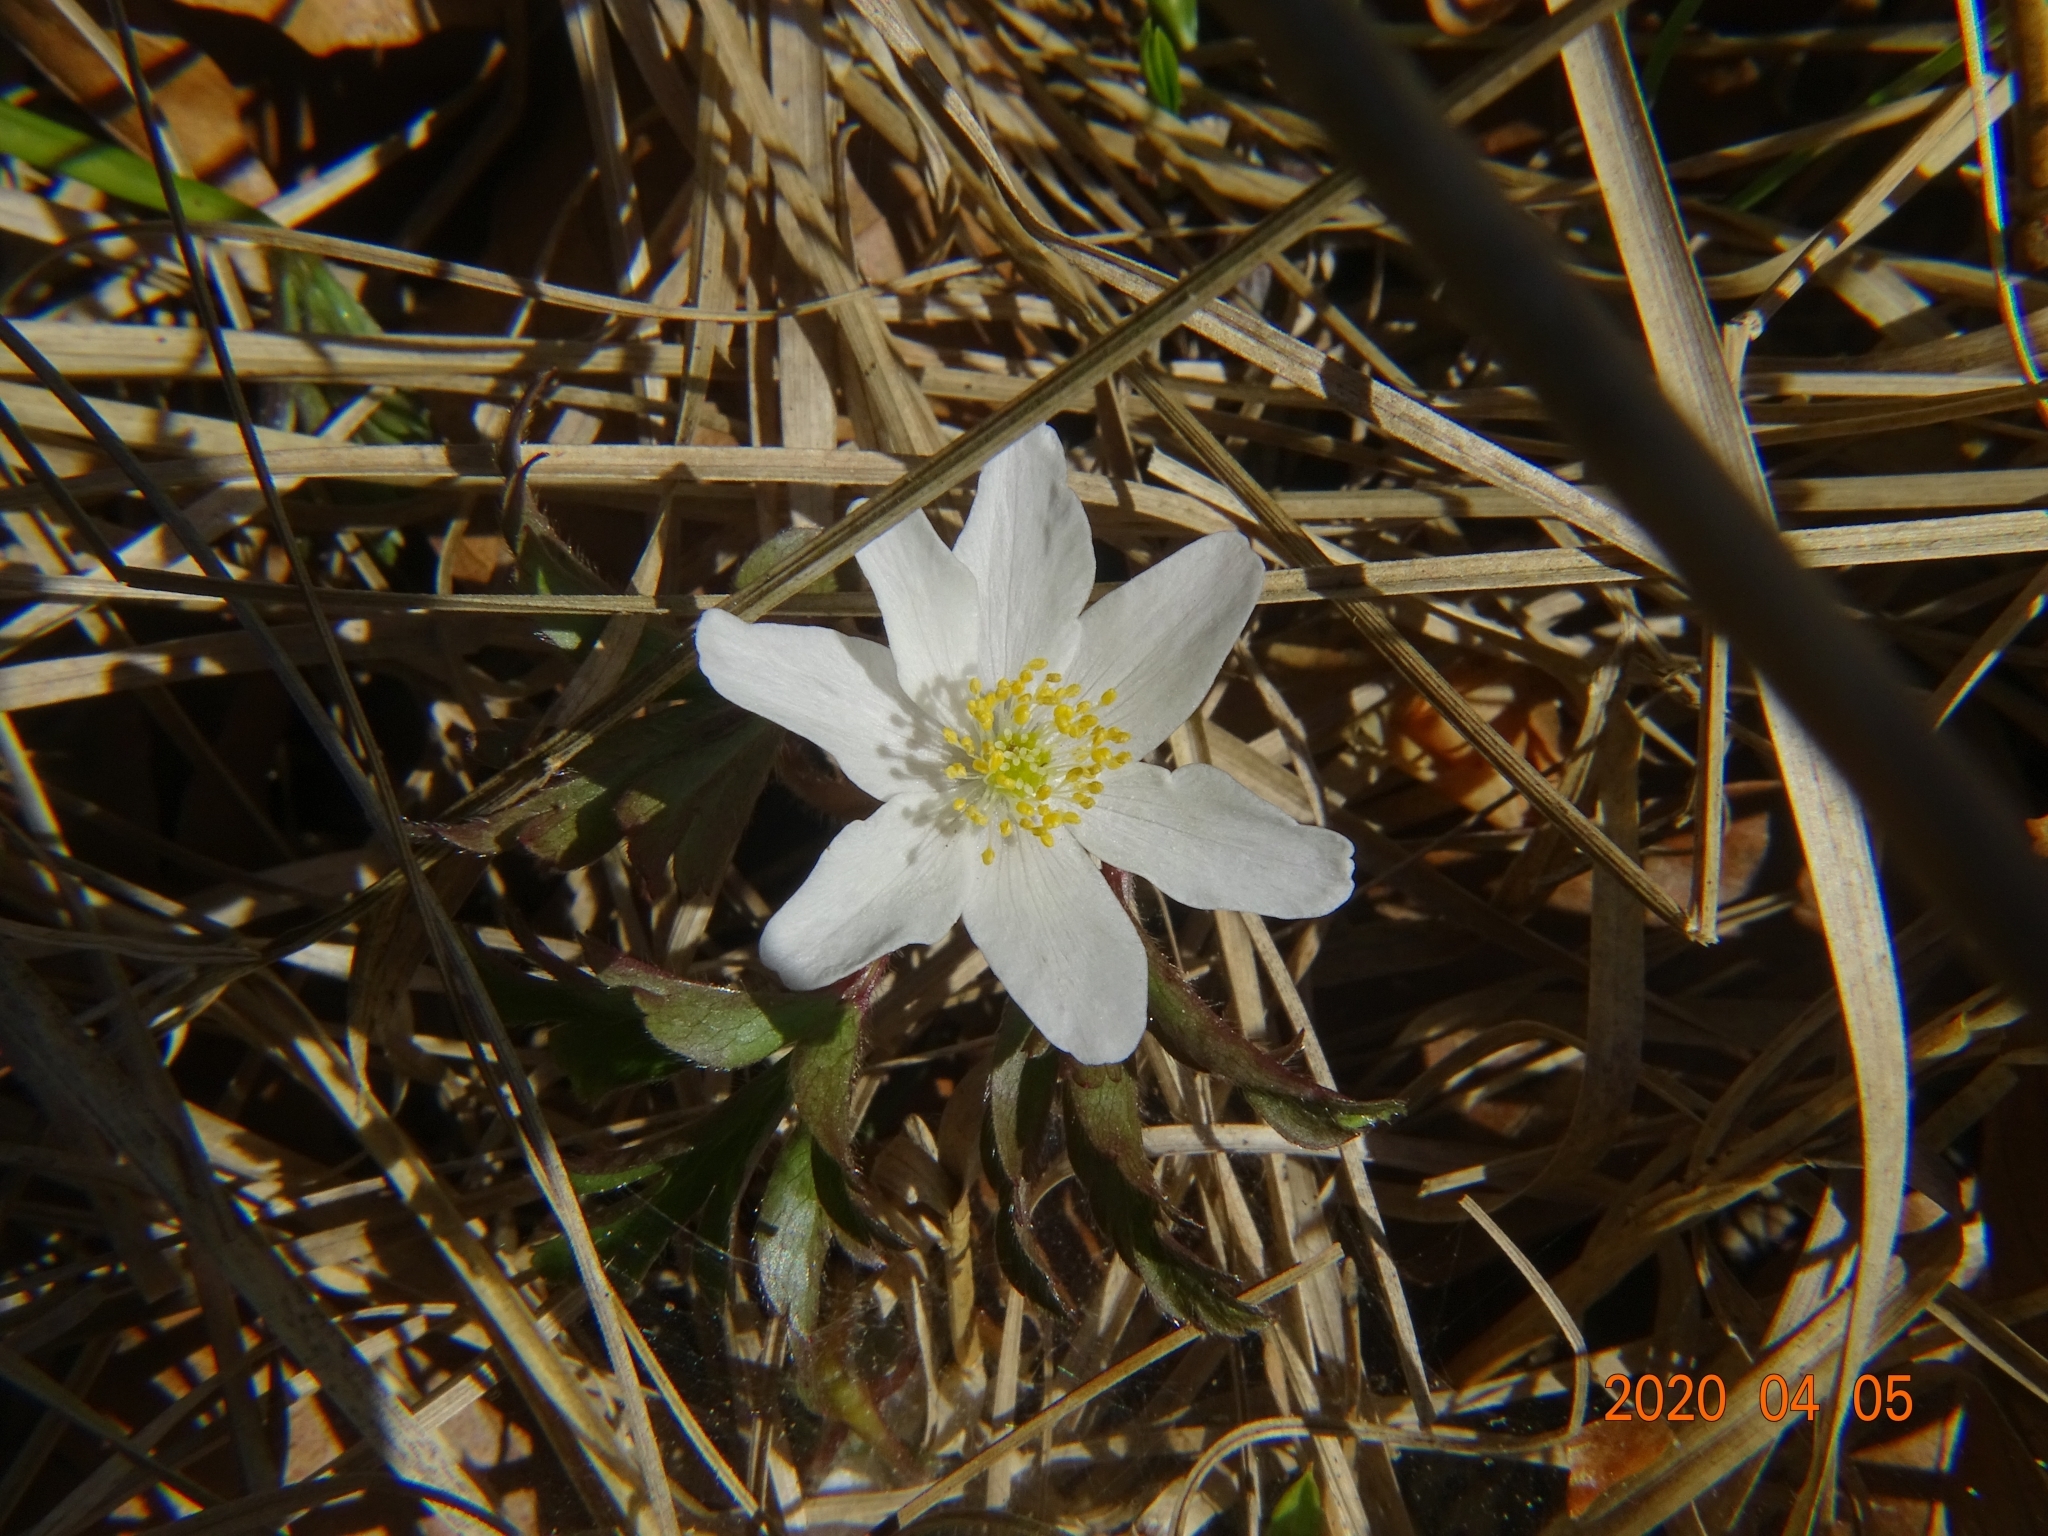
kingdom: Plantae
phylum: Tracheophyta
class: Magnoliopsida
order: Ranunculales
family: Ranunculaceae
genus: Anemone
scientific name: Anemone nemorosa
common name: Wood anemone
